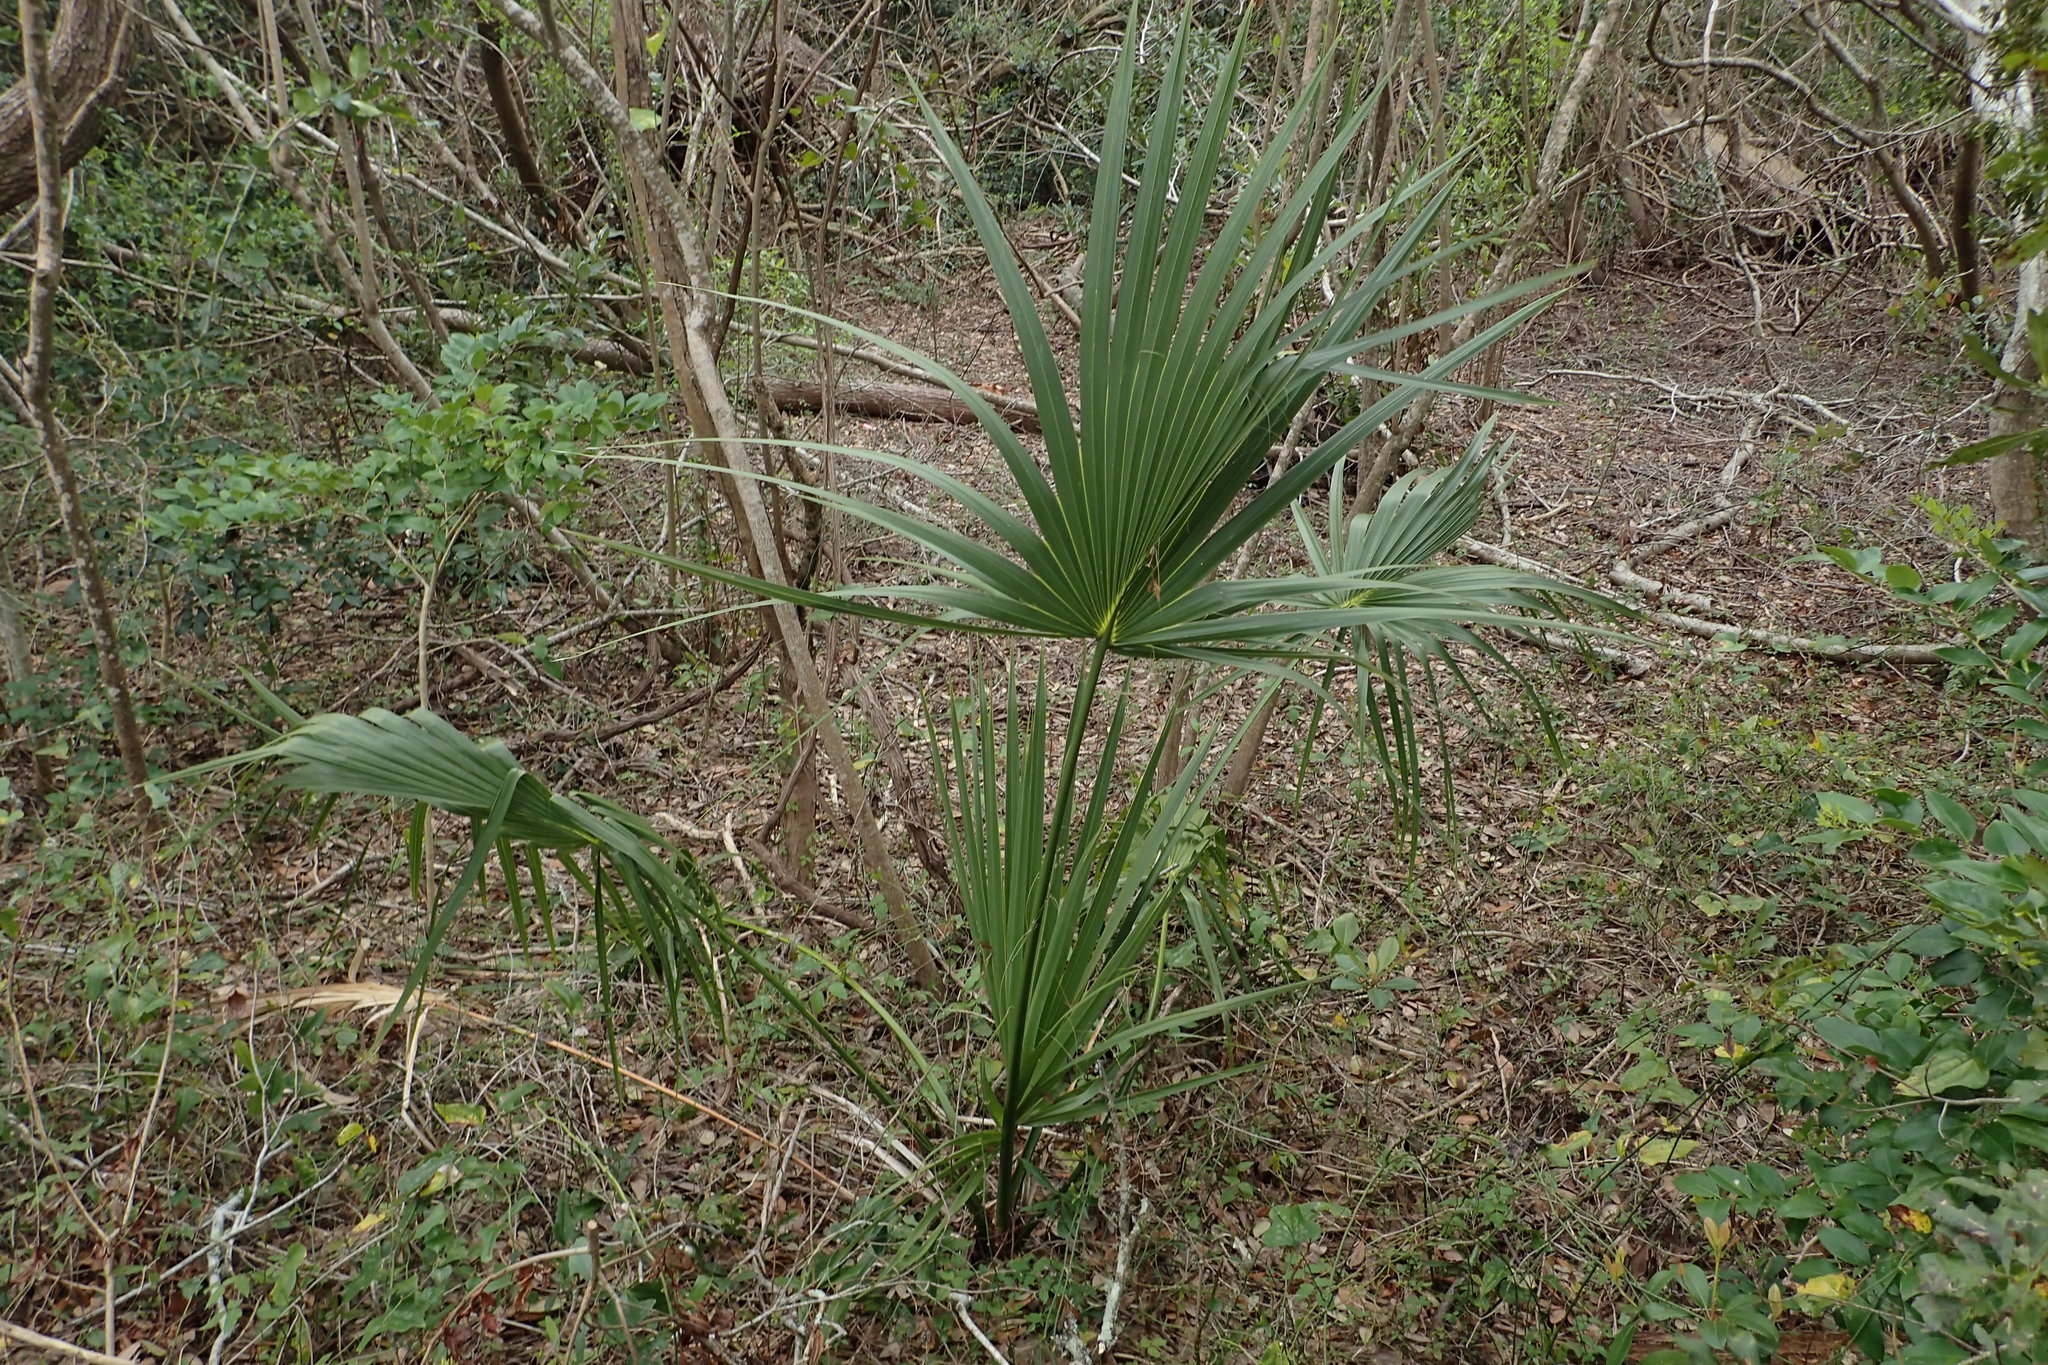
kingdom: Plantae
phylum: Tracheophyta
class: Liliopsida
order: Arecales
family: Arecaceae
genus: Sabal
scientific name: Sabal palmetto
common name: Blue palmetto
